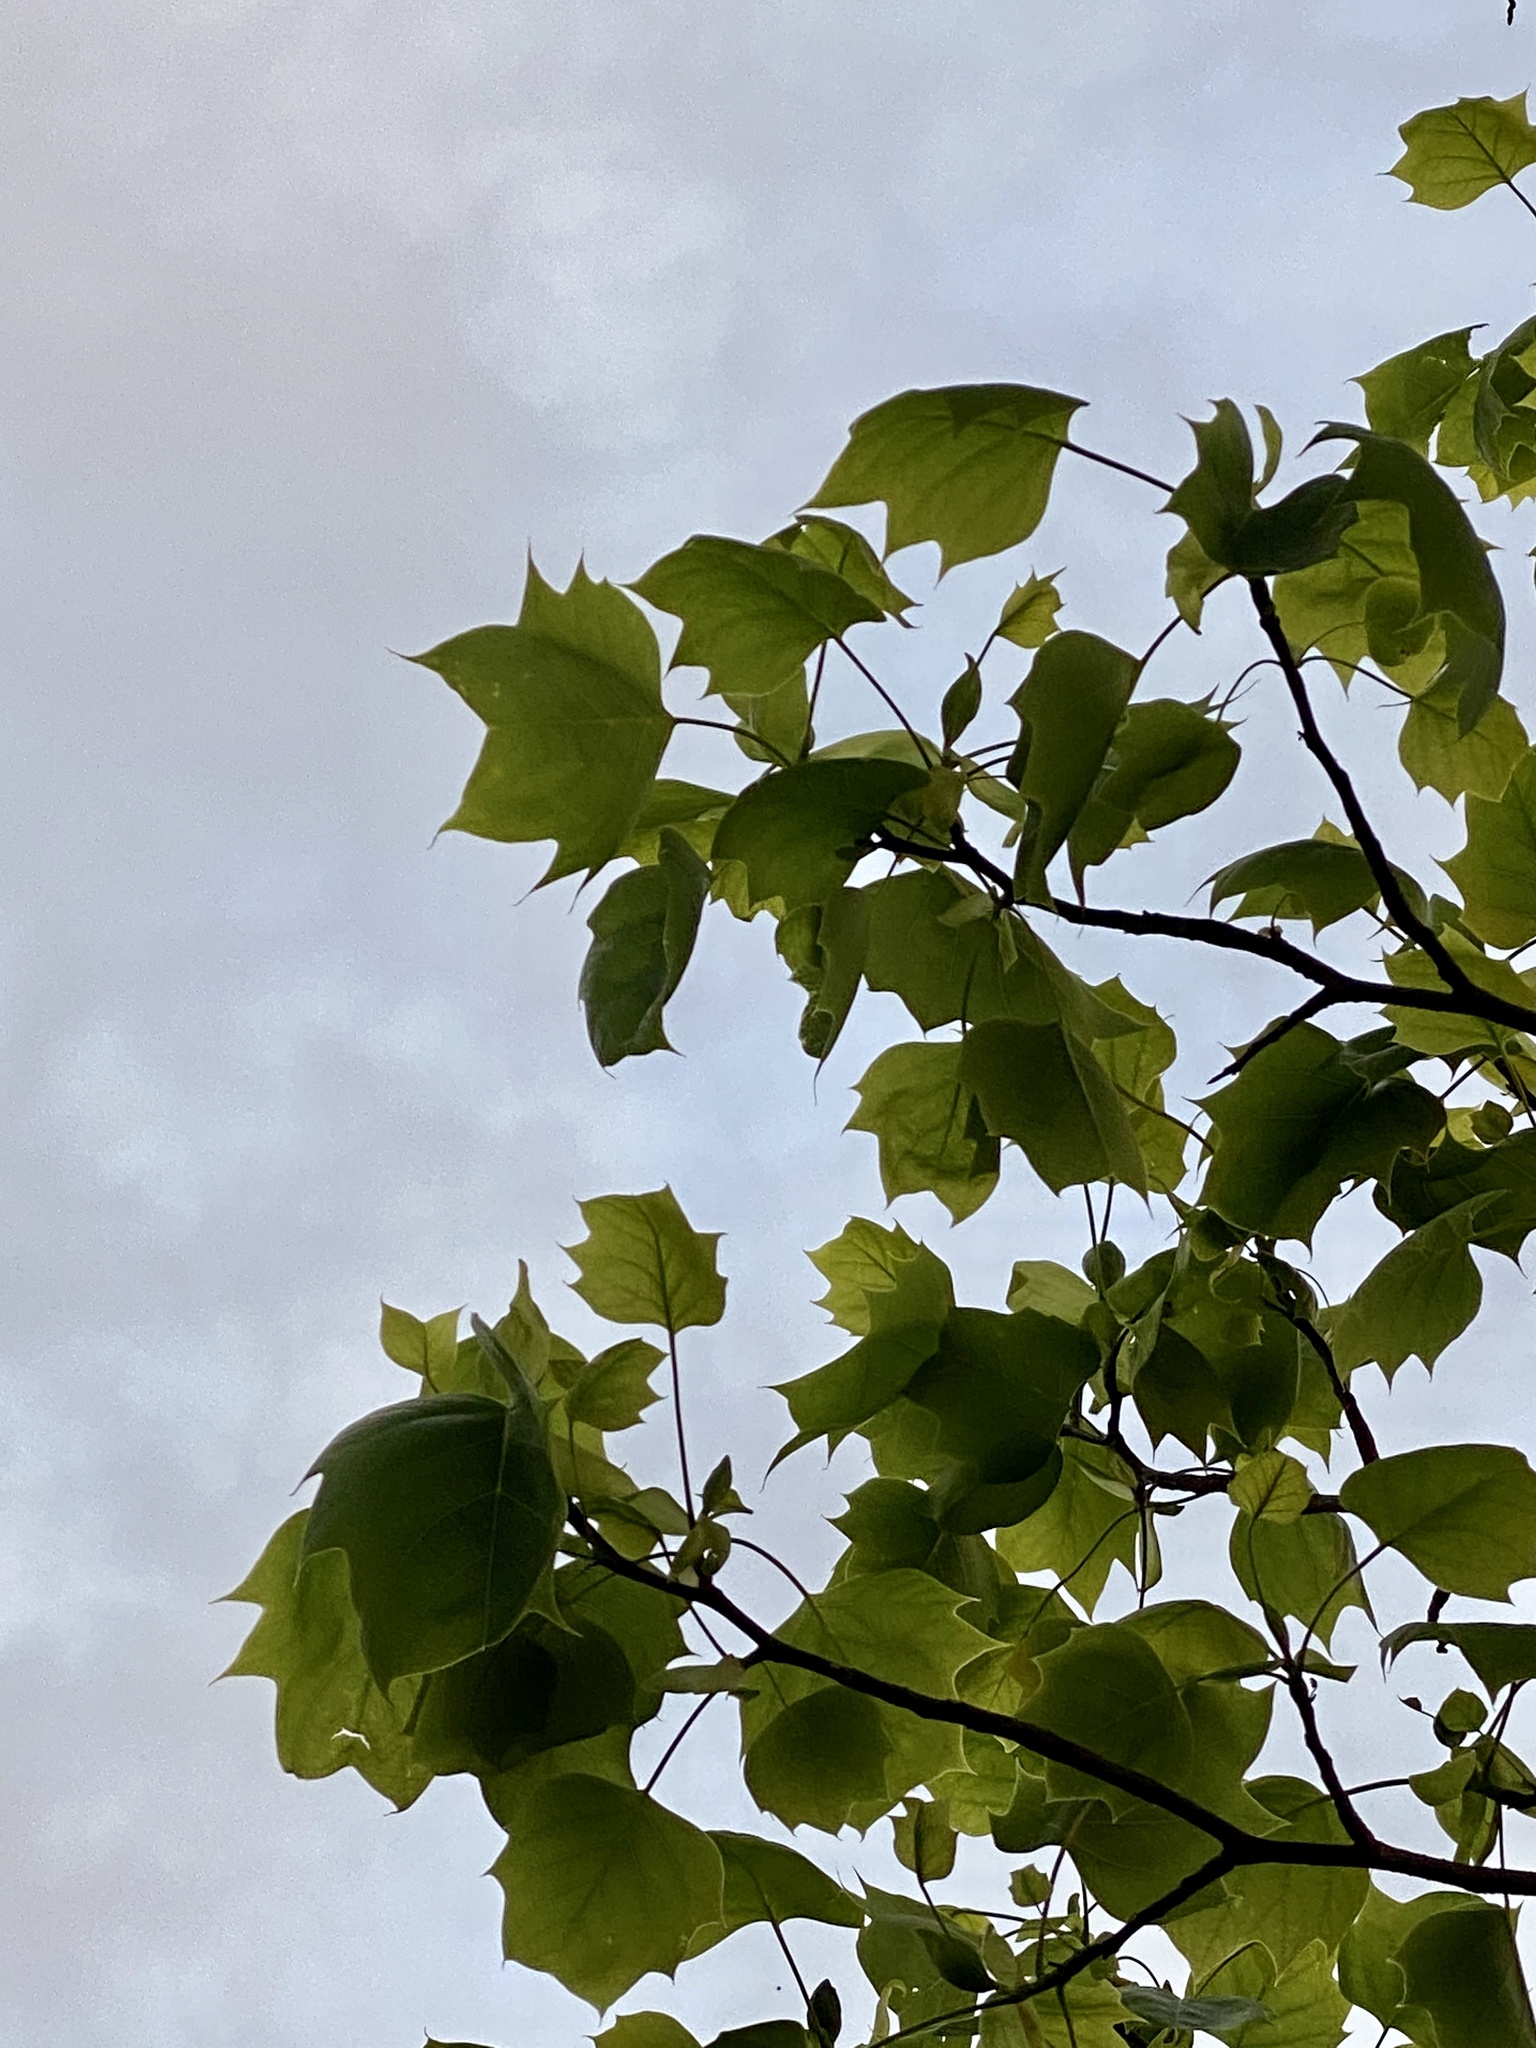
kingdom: Plantae
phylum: Tracheophyta
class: Magnoliopsida
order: Magnoliales
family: Magnoliaceae
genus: Liriodendron
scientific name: Liriodendron tulipifera
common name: Tulip tree
